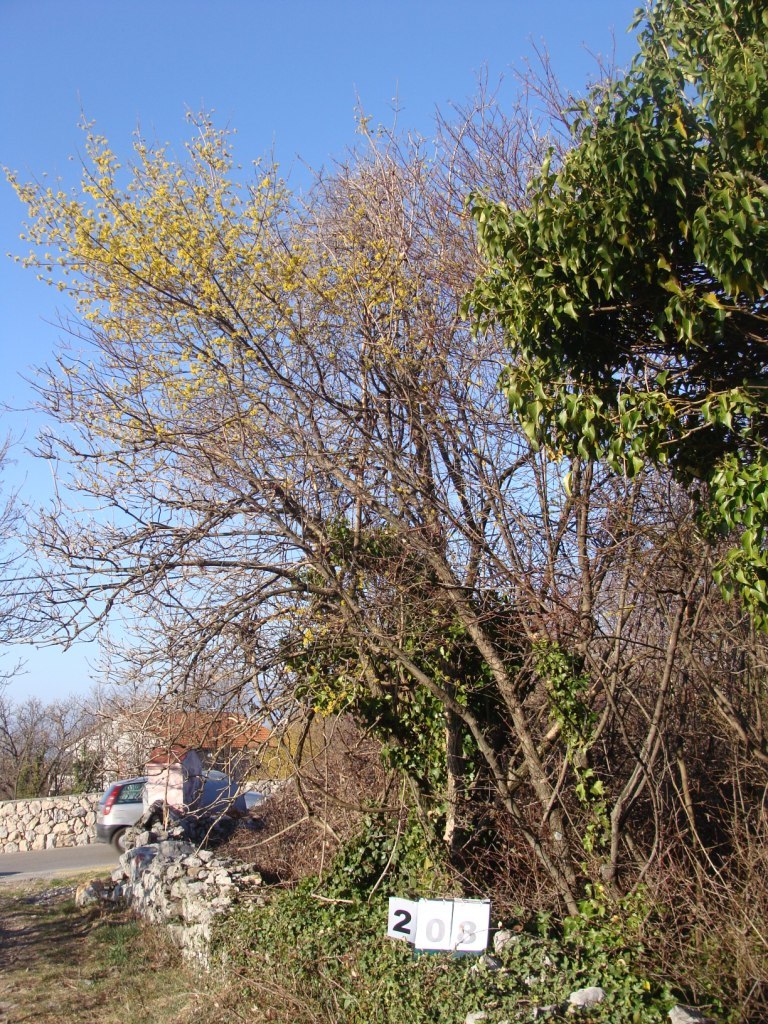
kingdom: Plantae
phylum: Tracheophyta
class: Magnoliopsida
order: Cornales
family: Cornaceae
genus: Cornus
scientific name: Cornus mas
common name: Cornelian-cherry
